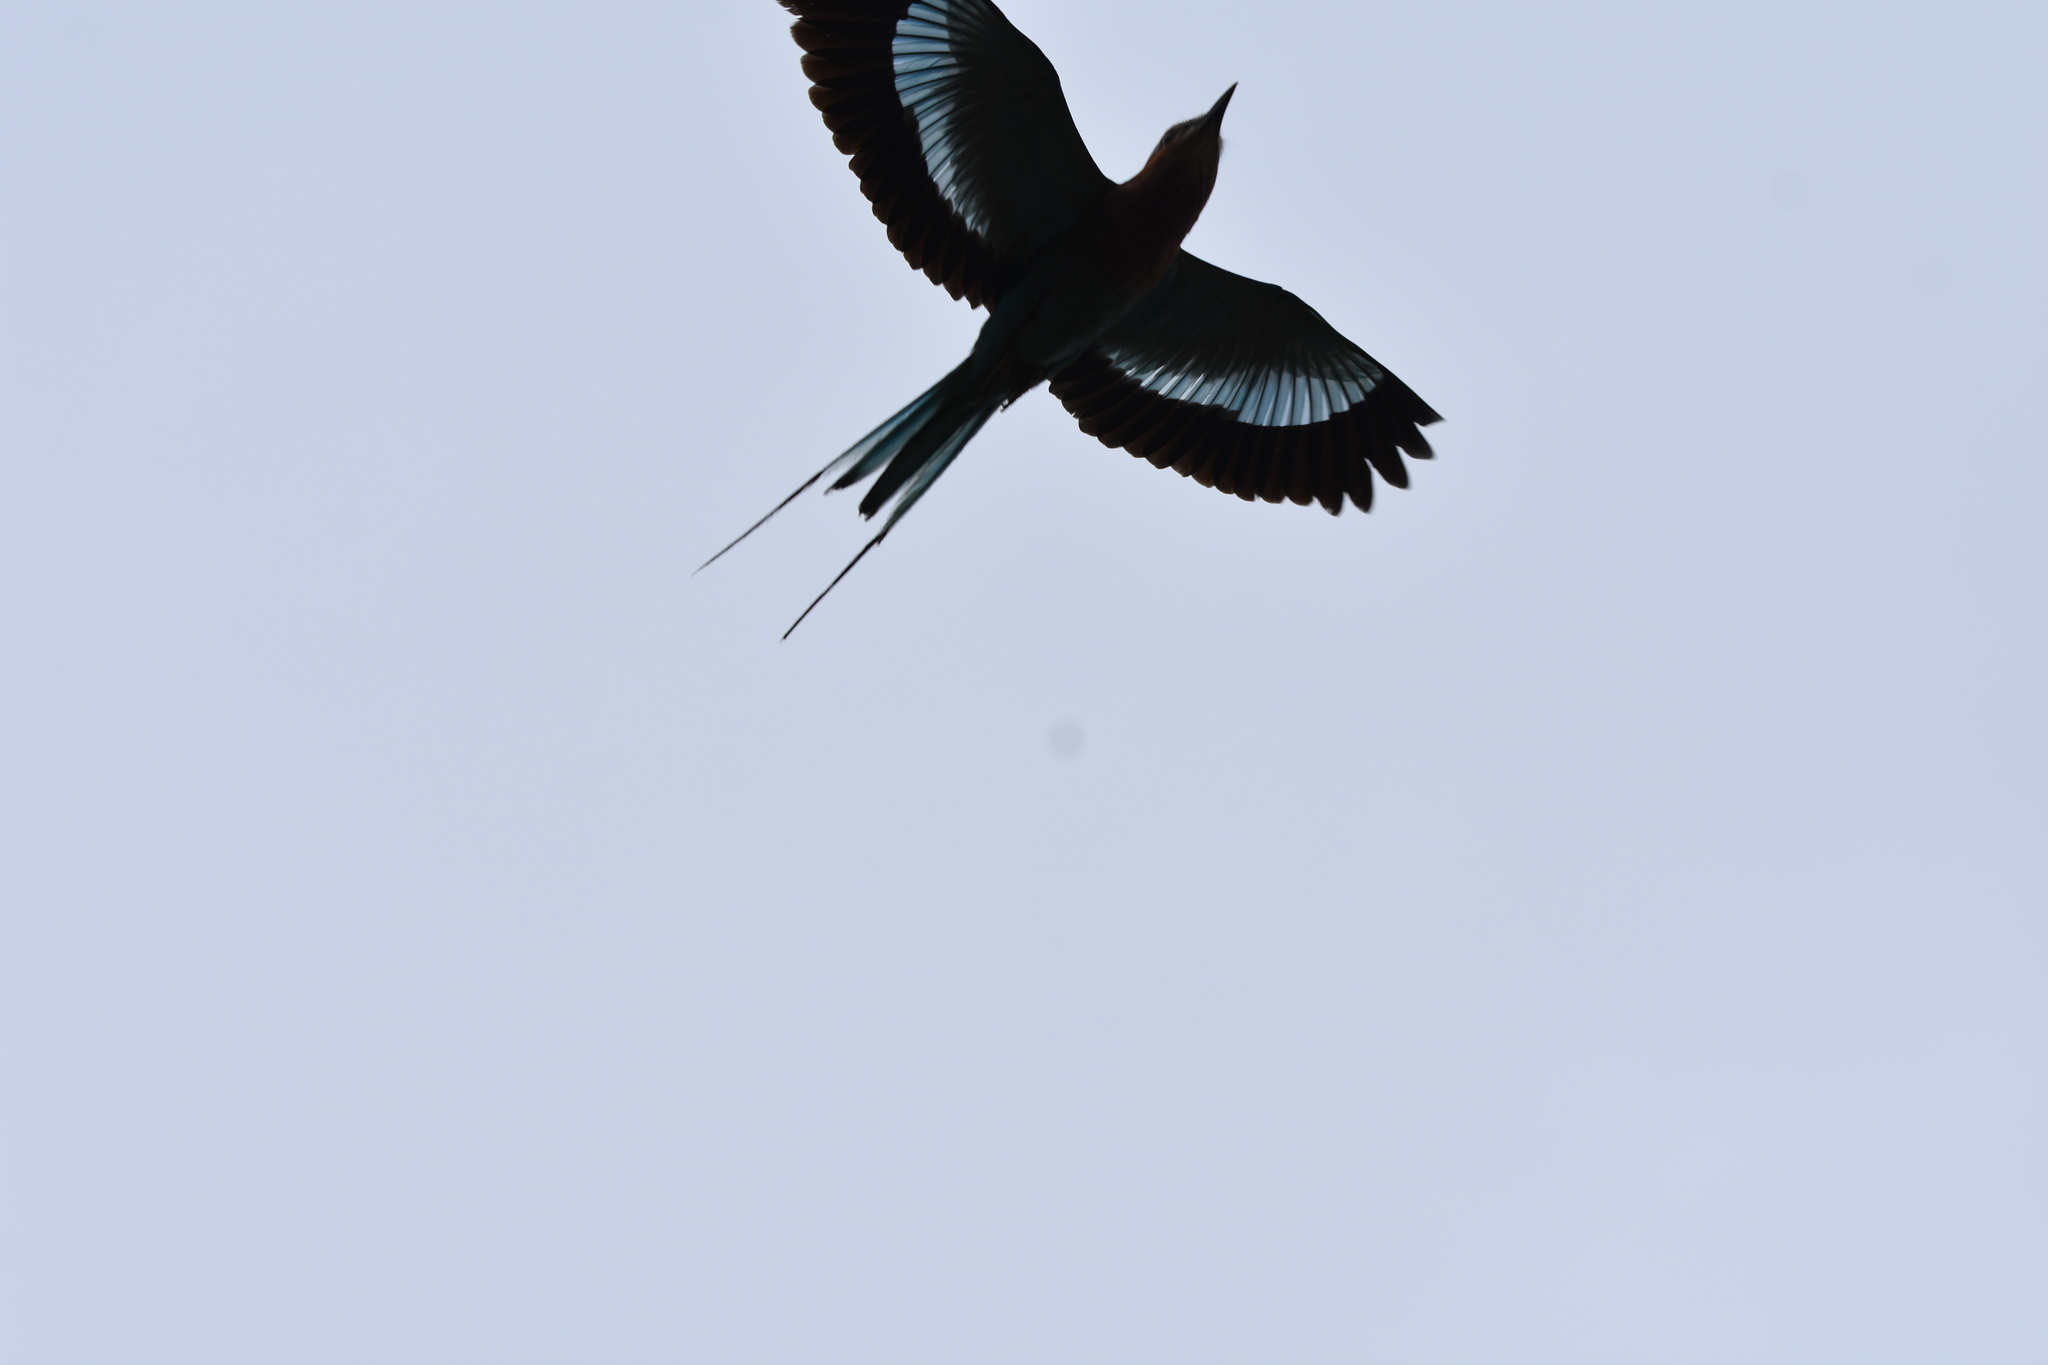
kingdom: Animalia
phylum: Chordata
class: Aves
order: Coraciiformes
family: Coraciidae
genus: Coracias
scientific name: Coracias caudatus
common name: Lilac-breasted roller
